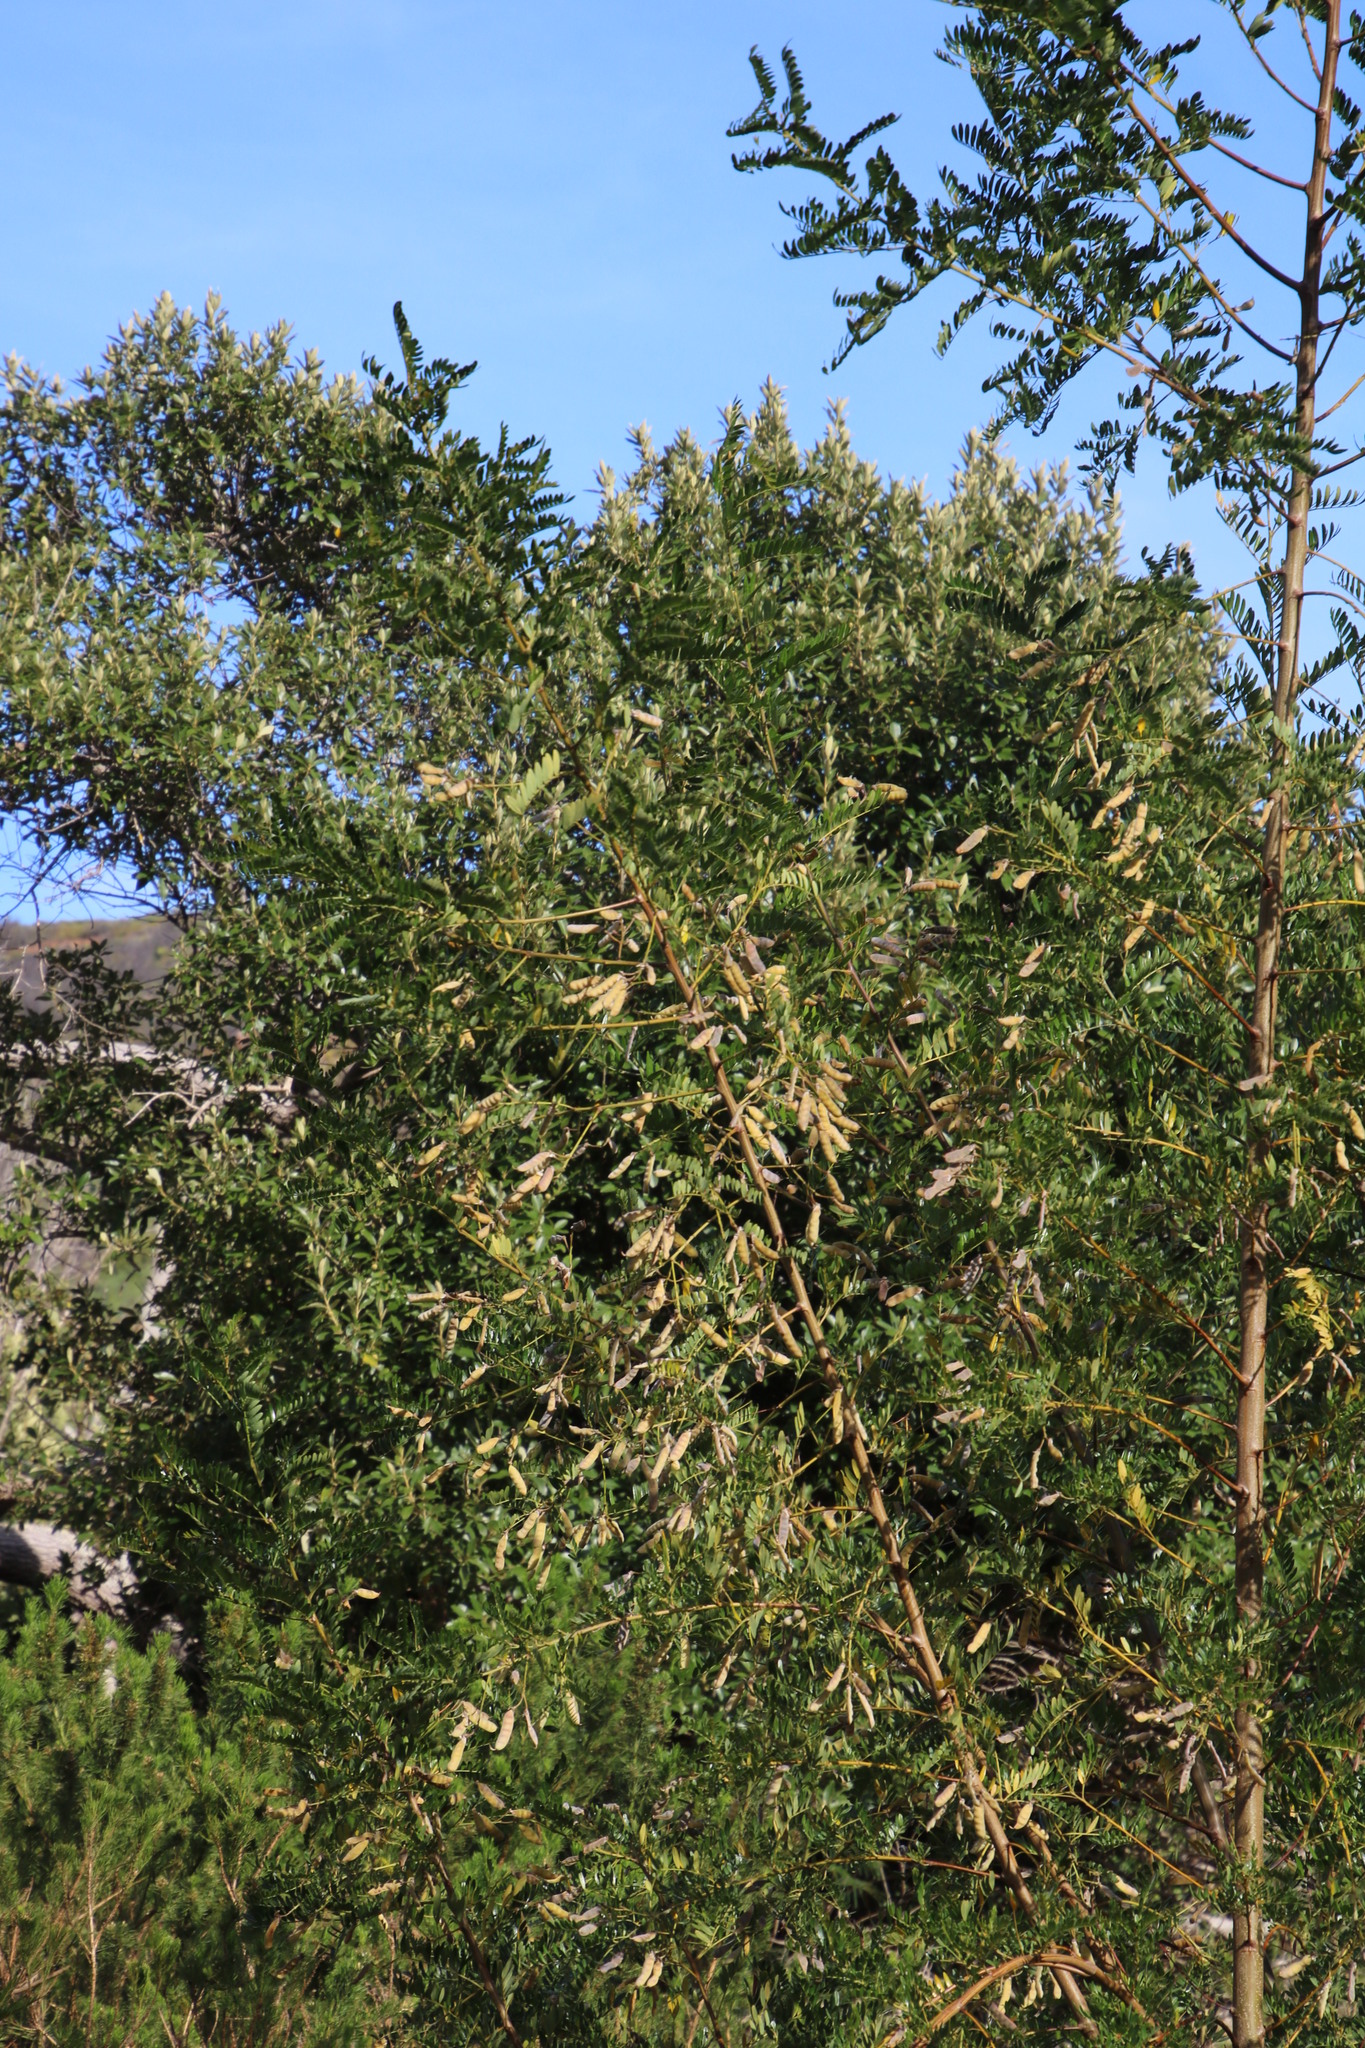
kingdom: Plantae
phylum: Tracheophyta
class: Magnoliopsida
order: Fabales
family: Fabaceae
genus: Virgilia
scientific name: Virgilia oroboides
